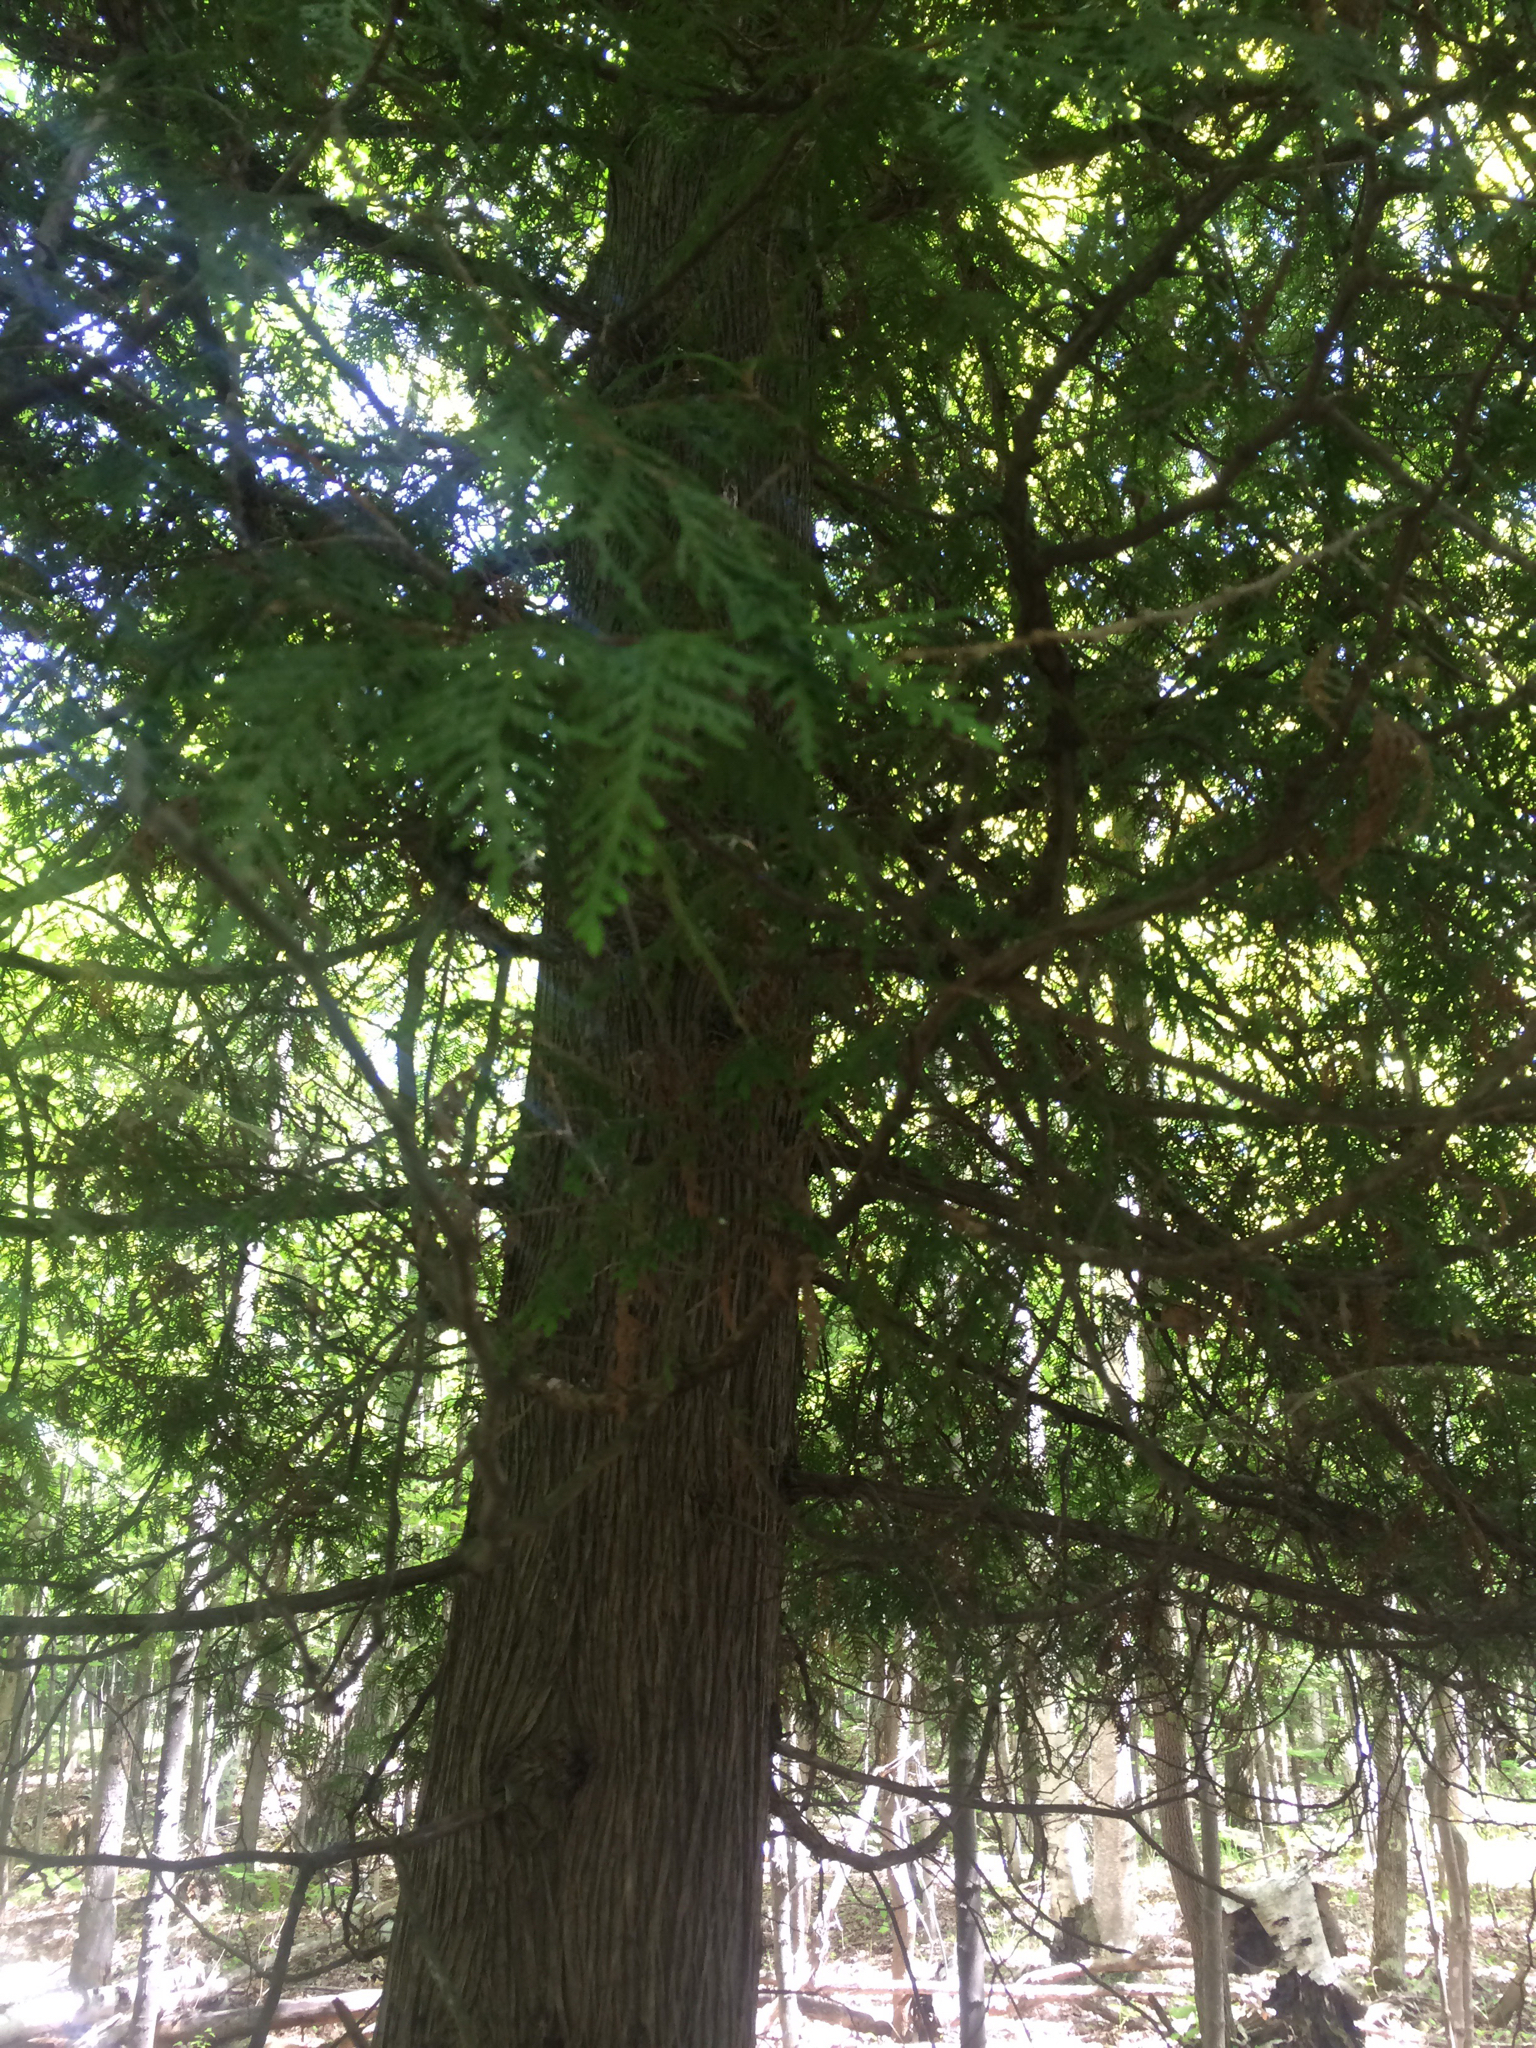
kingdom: Plantae
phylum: Tracheophyta
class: Pinopsida
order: Pinales
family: Cupressaceae
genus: Thuja
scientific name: Thuja occidentalis
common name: Northern white-cedar
